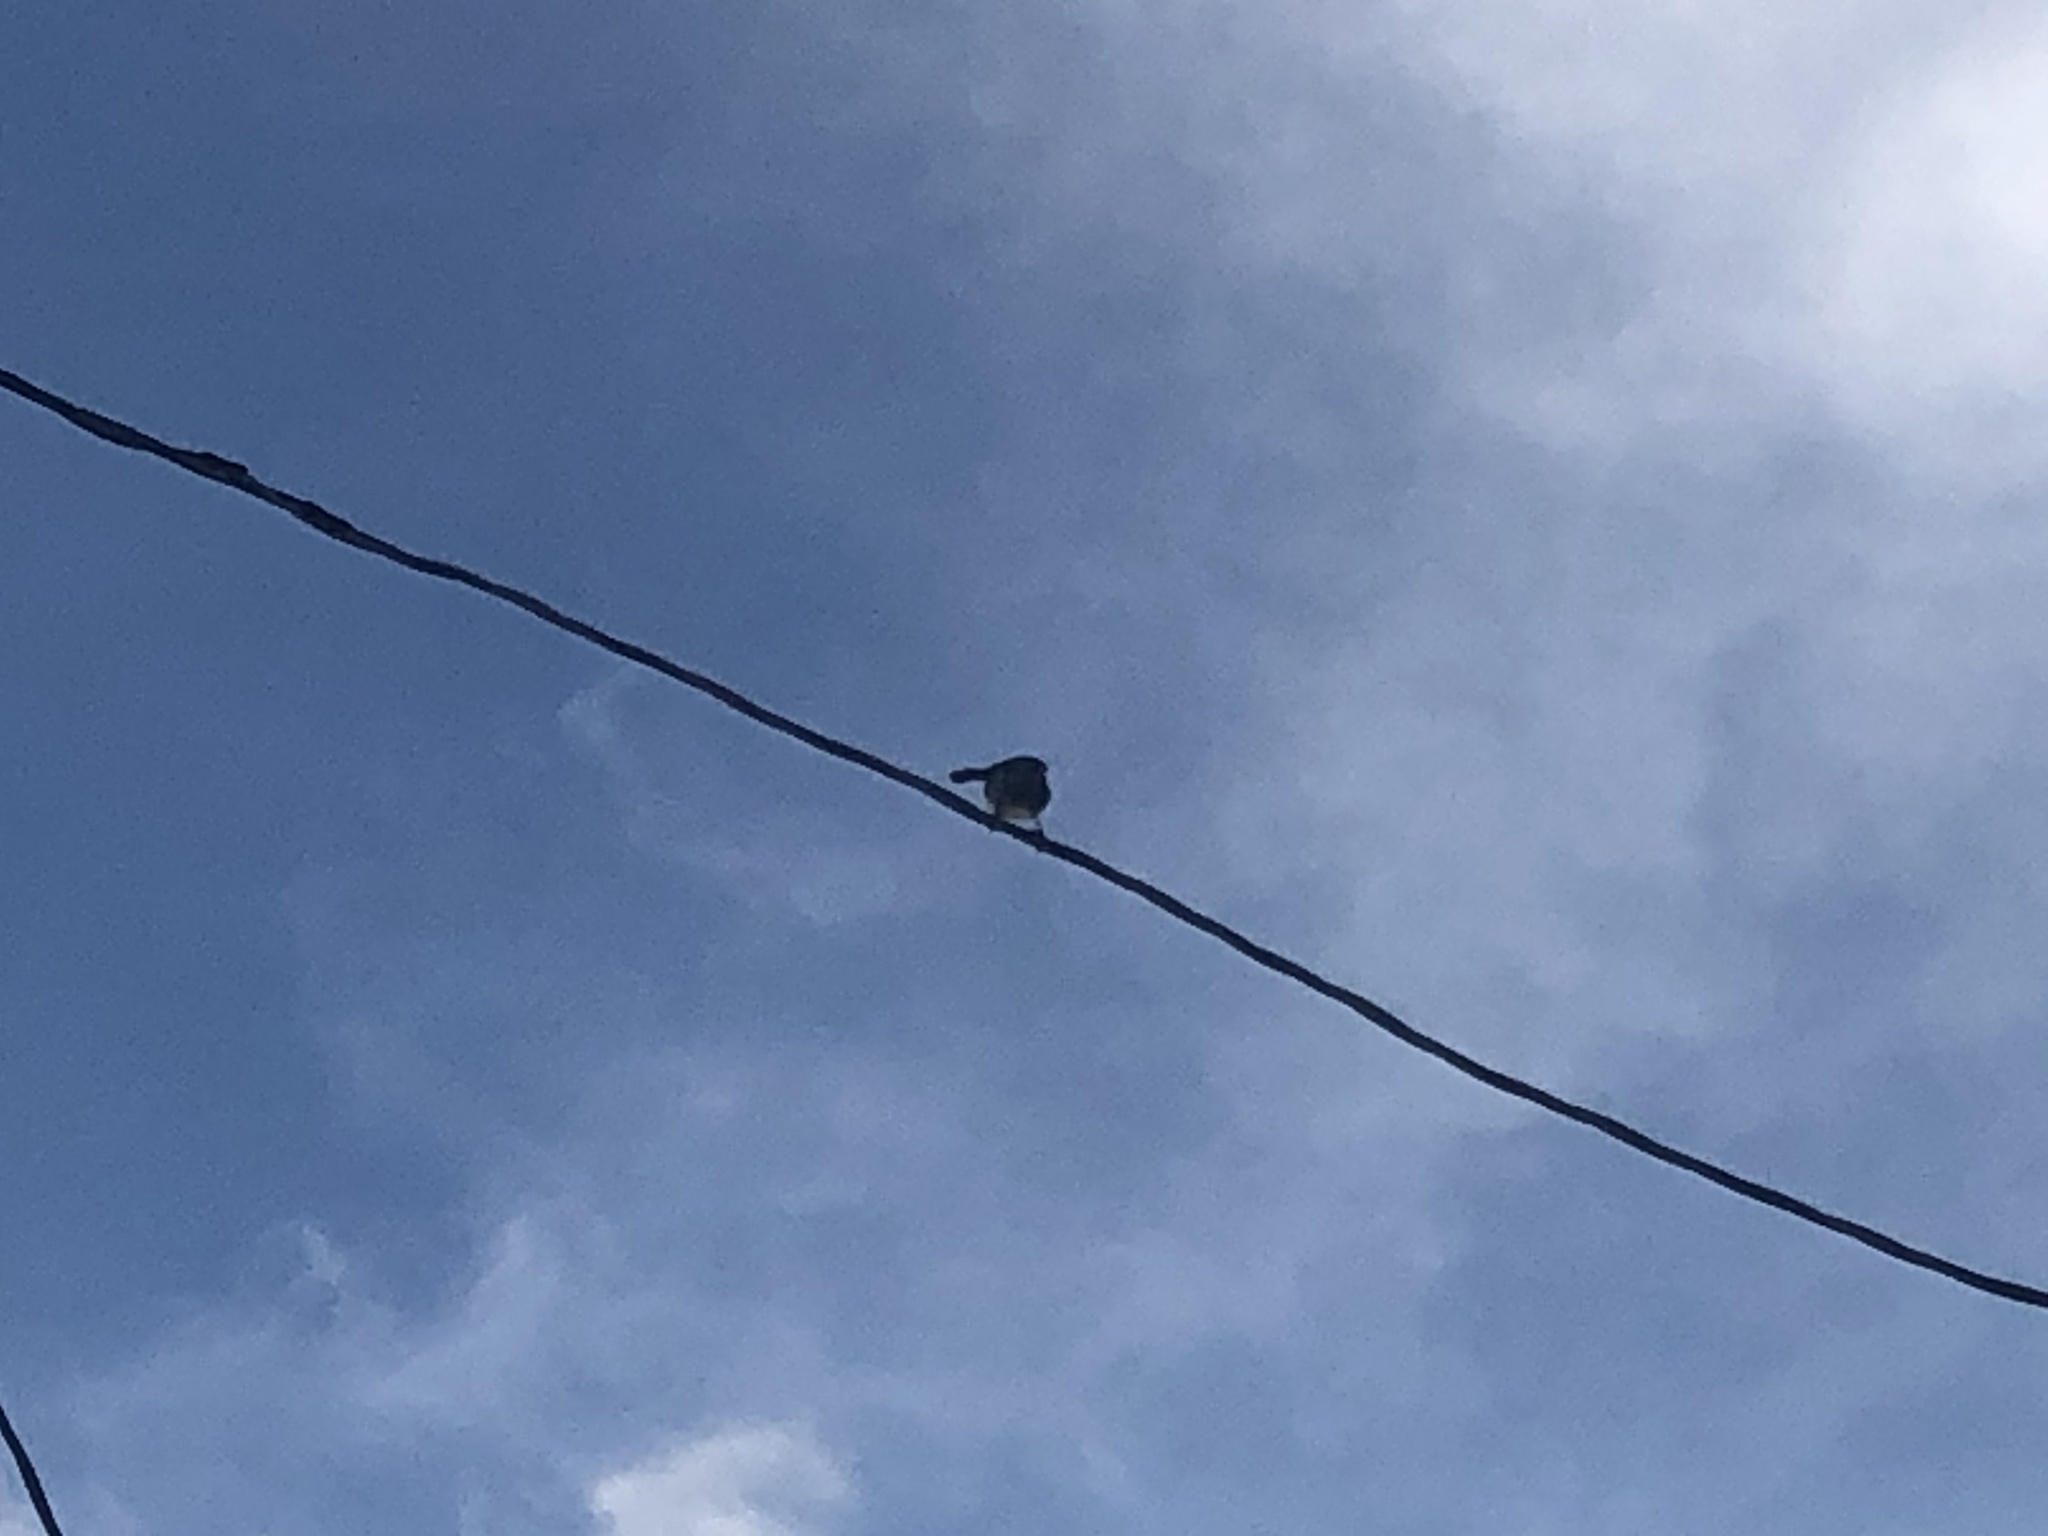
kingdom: Animalia
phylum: Chordata
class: Aves
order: Passeriformes
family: Corvidae
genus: Aphelocoma
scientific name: Aphelocoma californica
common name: California scrub-jay
